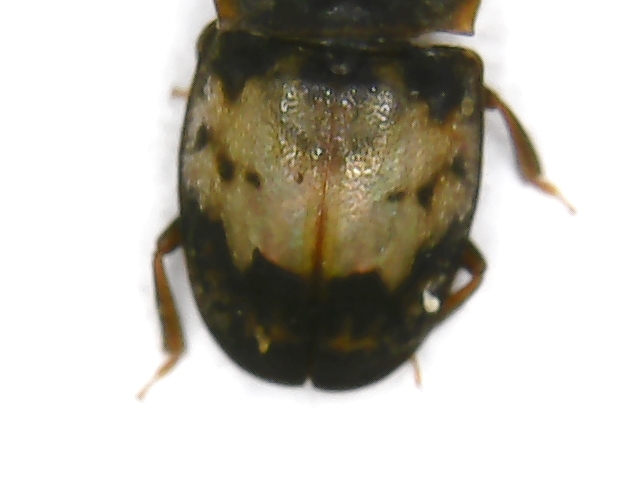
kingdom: Animalia
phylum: Arthropoda
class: Insecta
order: Coleoptera
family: Nitidulidae
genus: Omosita
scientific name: Omosita discoidea
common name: Sap beetle
